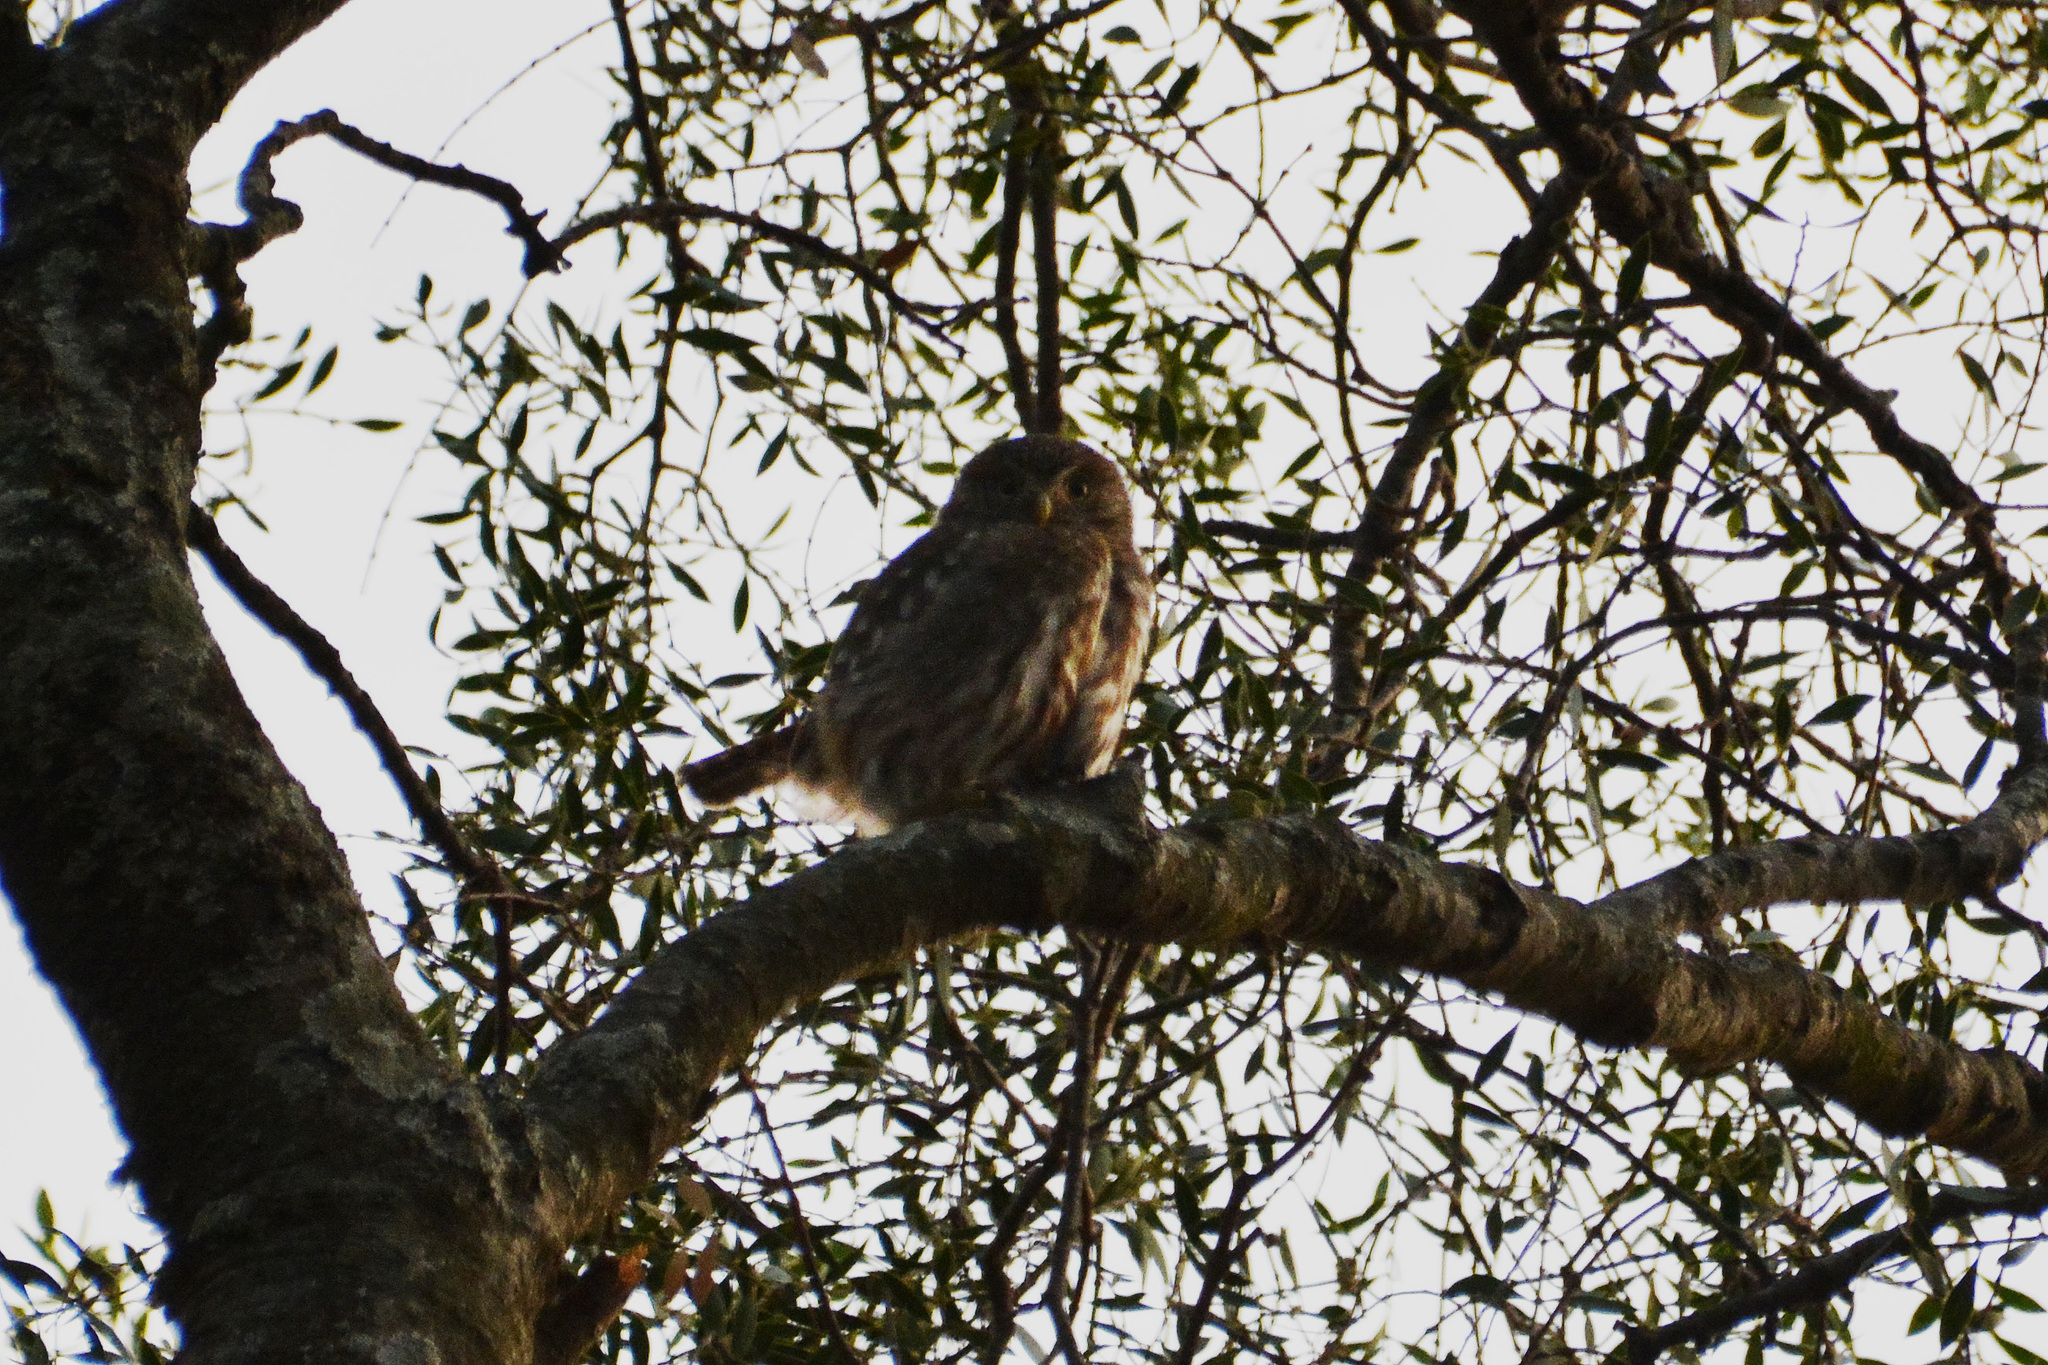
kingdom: Animalia
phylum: Chordata
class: Aves
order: Strigiformes
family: Strigidae
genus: Glaucidium
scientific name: Glaucidium brasilianum
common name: Ferruginous pygmy-owl
